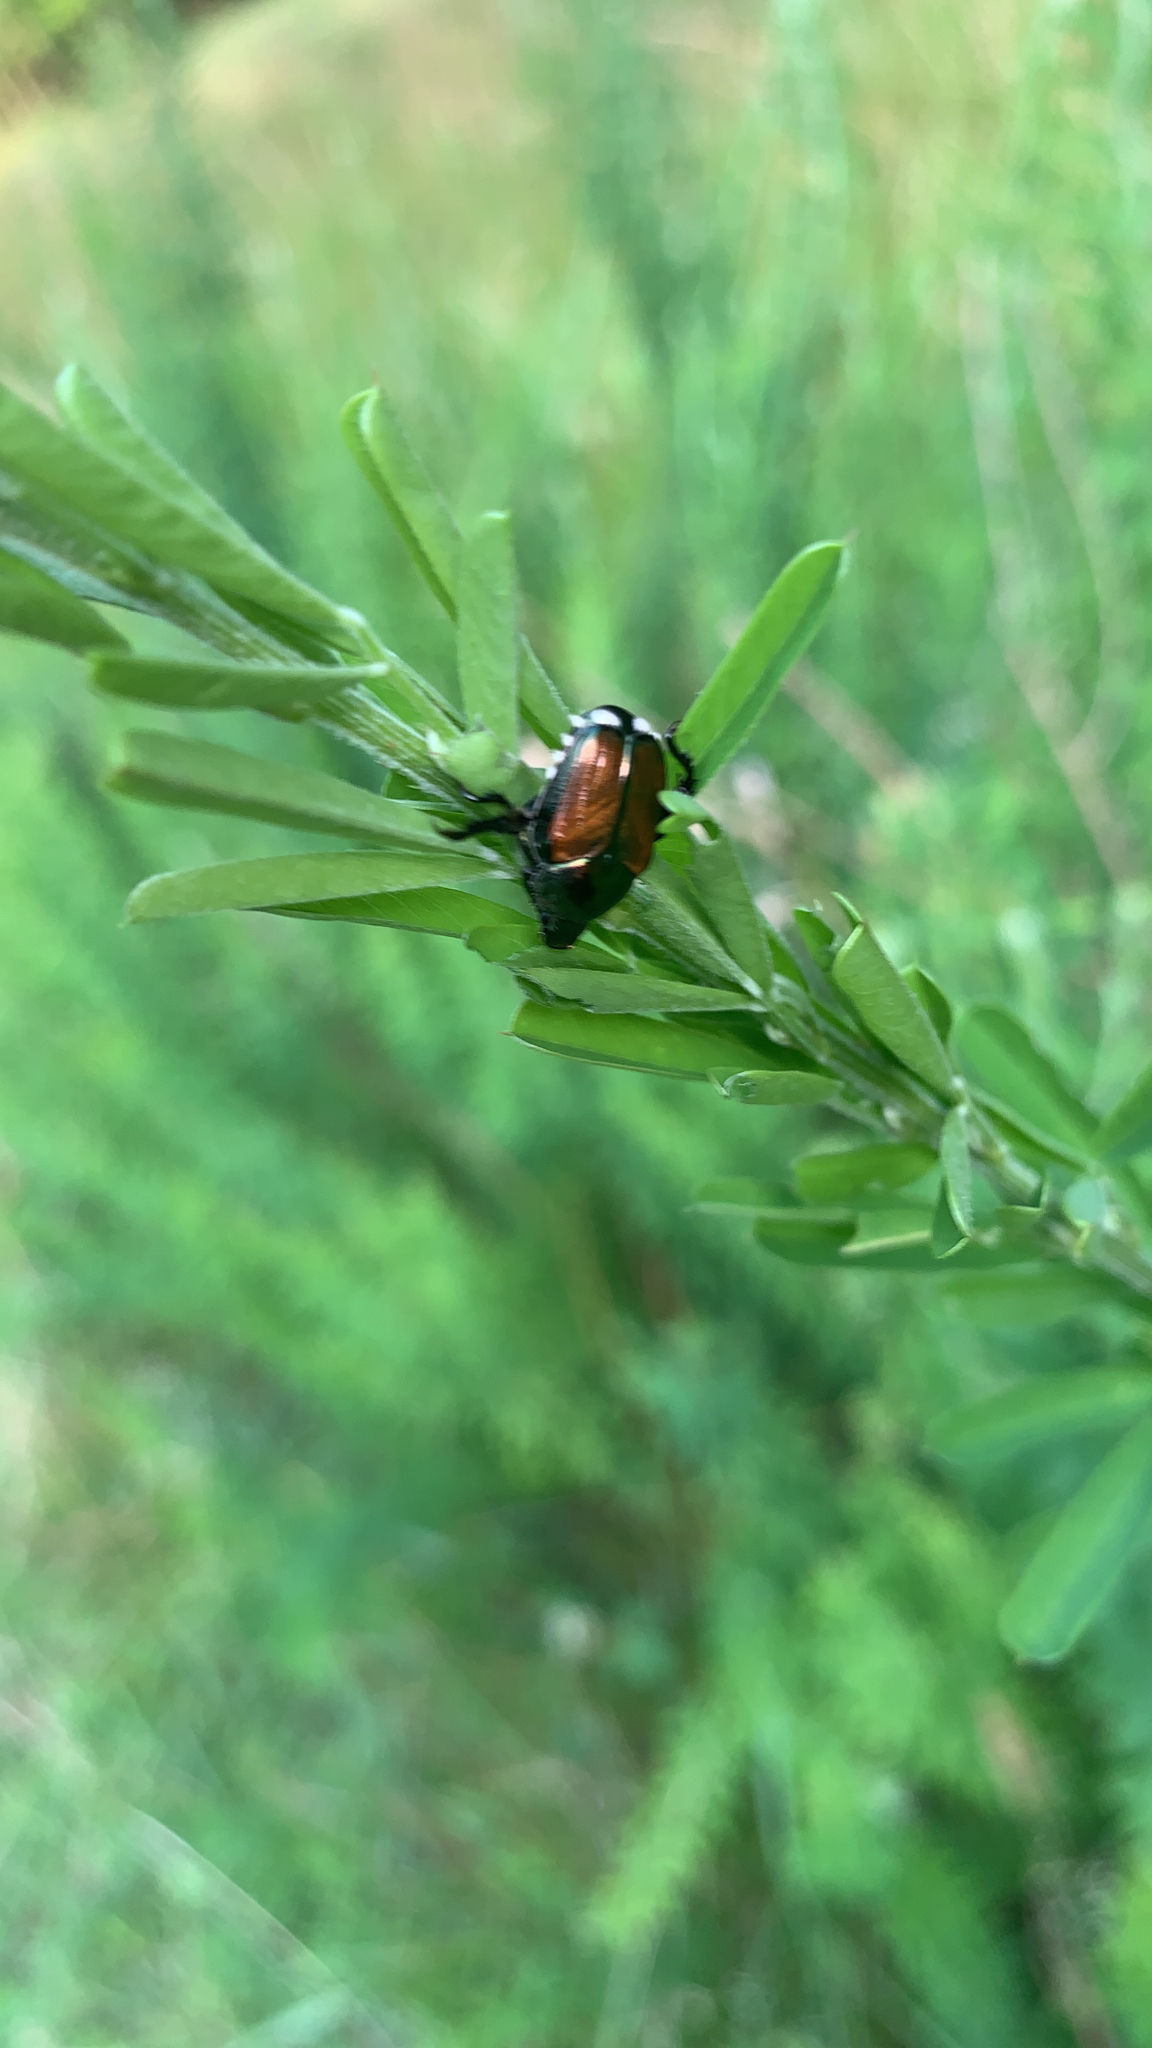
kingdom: Animalia
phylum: Arthropoda
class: Insecta
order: Coleoptera
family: Scarabaeidae
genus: Popillia
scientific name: Popillia japonica
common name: Japanese beetle
